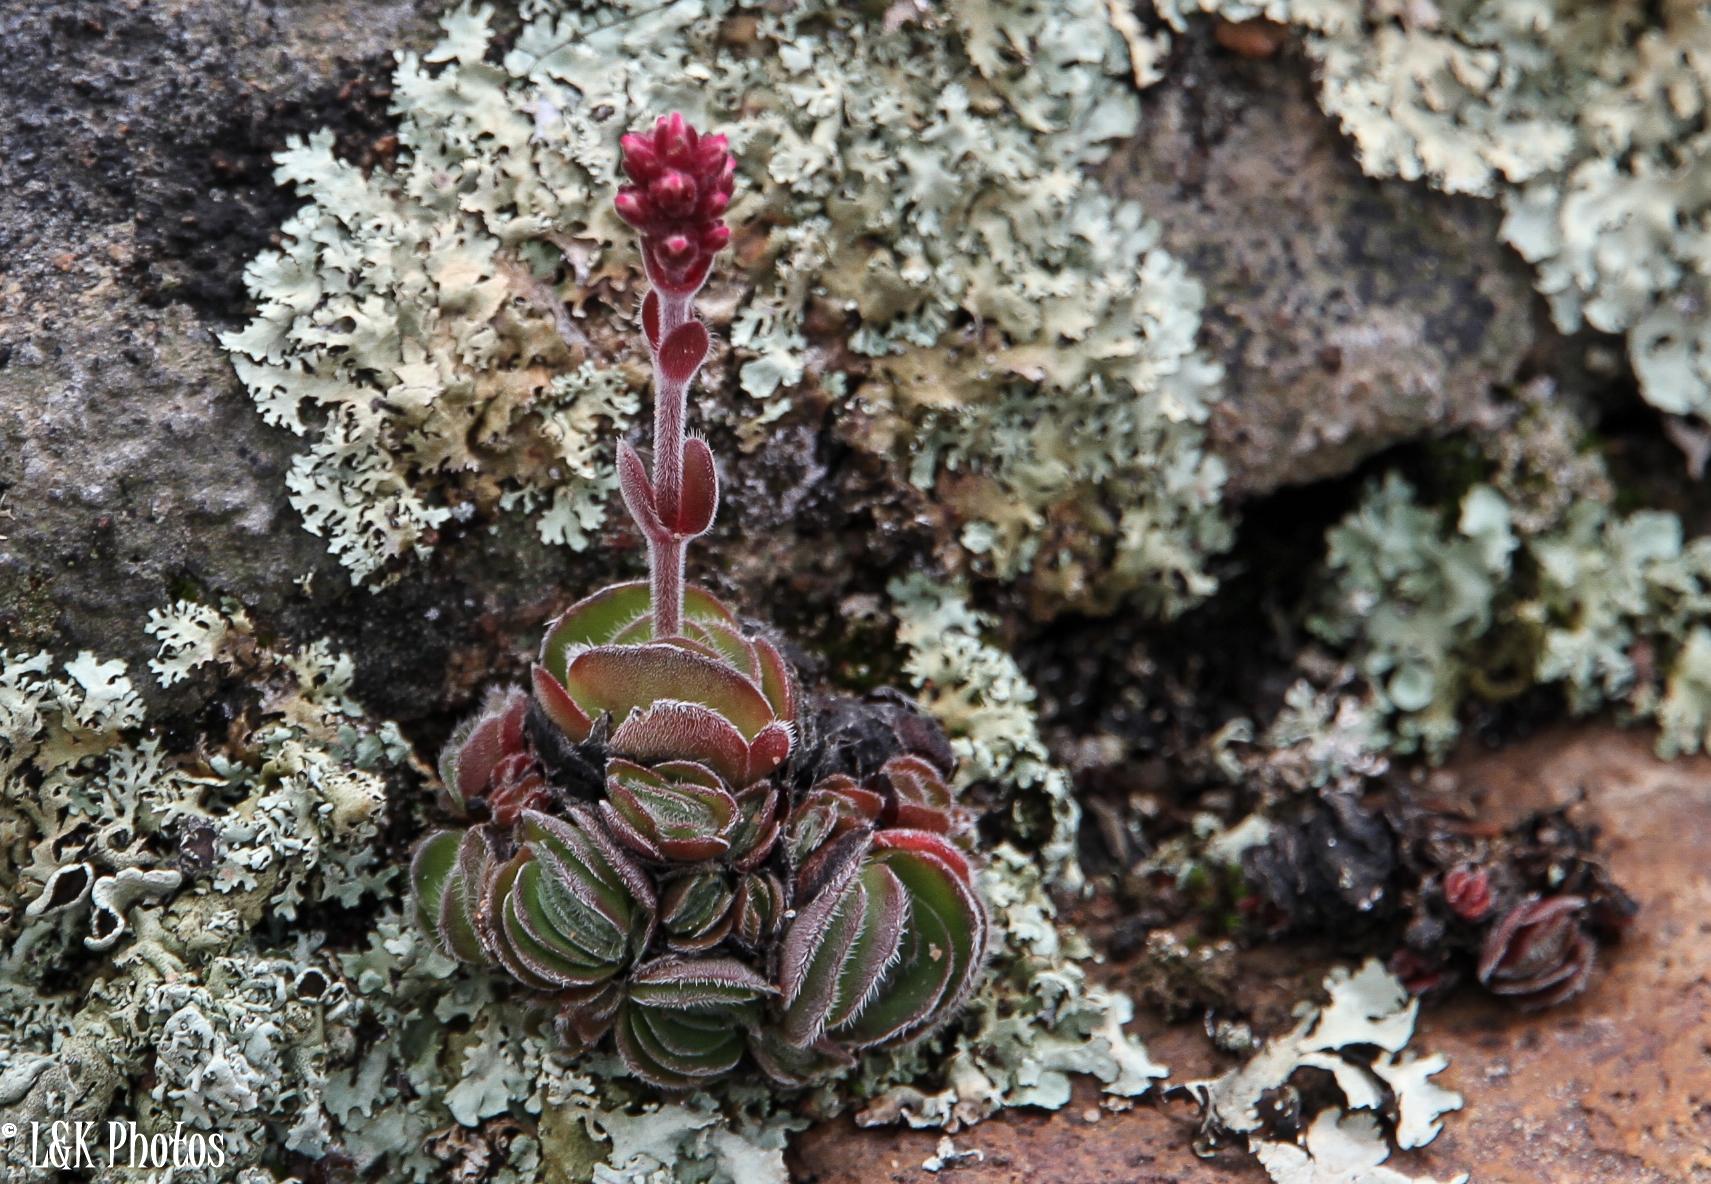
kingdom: Plantae
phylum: Tracheophyta
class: Magnoliopsida
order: Saxifragales
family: Crassulaceae
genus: Crassula
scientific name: Crassula tomentosa
